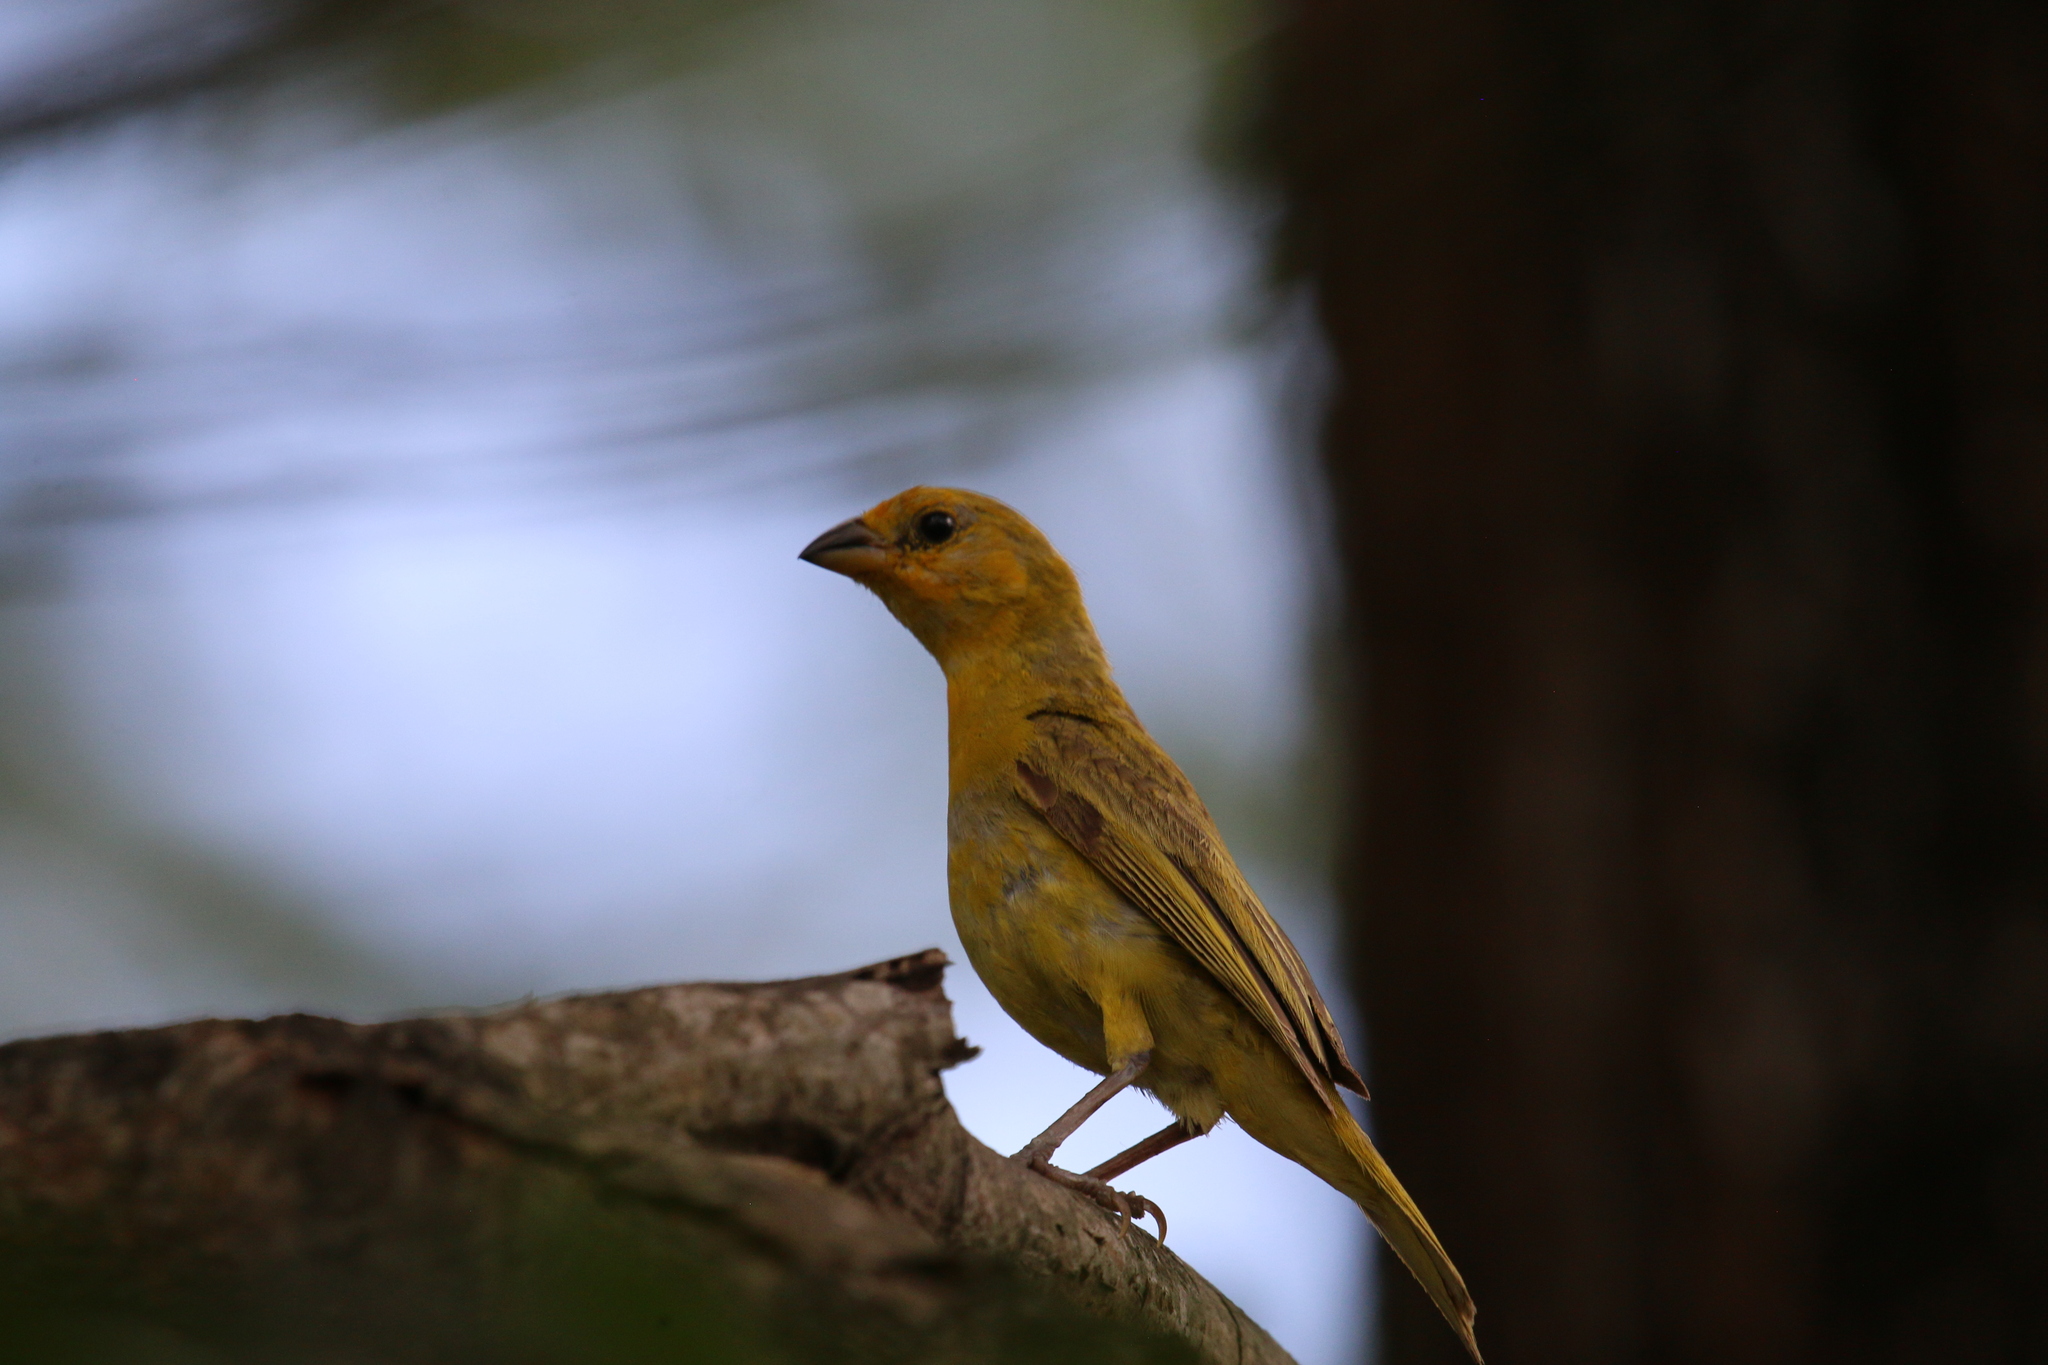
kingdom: Animalia
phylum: Chordata
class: Aves
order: Passeriformes
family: Thraupidae
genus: Sicalis
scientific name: Sicalis flaveola
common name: Saffron finch
